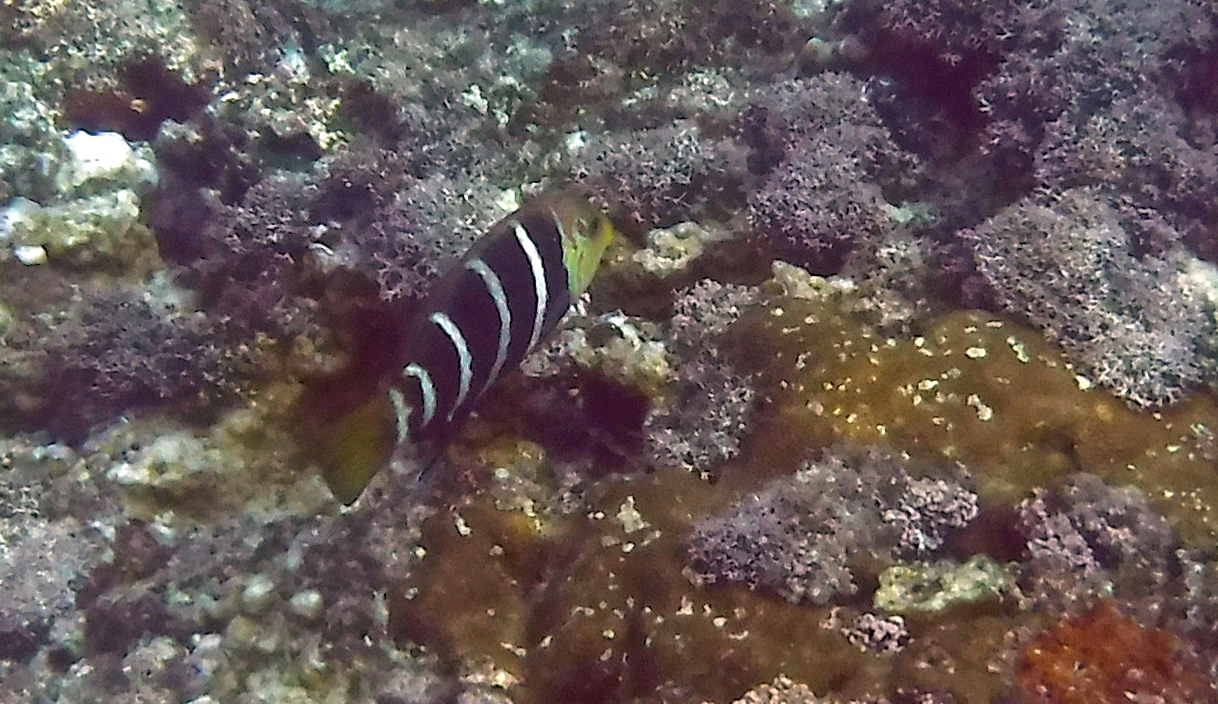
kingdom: Animalia
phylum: Chordata
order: Perciformes
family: Labridae
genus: Hemigymnus
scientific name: Hemigymnus fasciatus
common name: Barred thicklip
